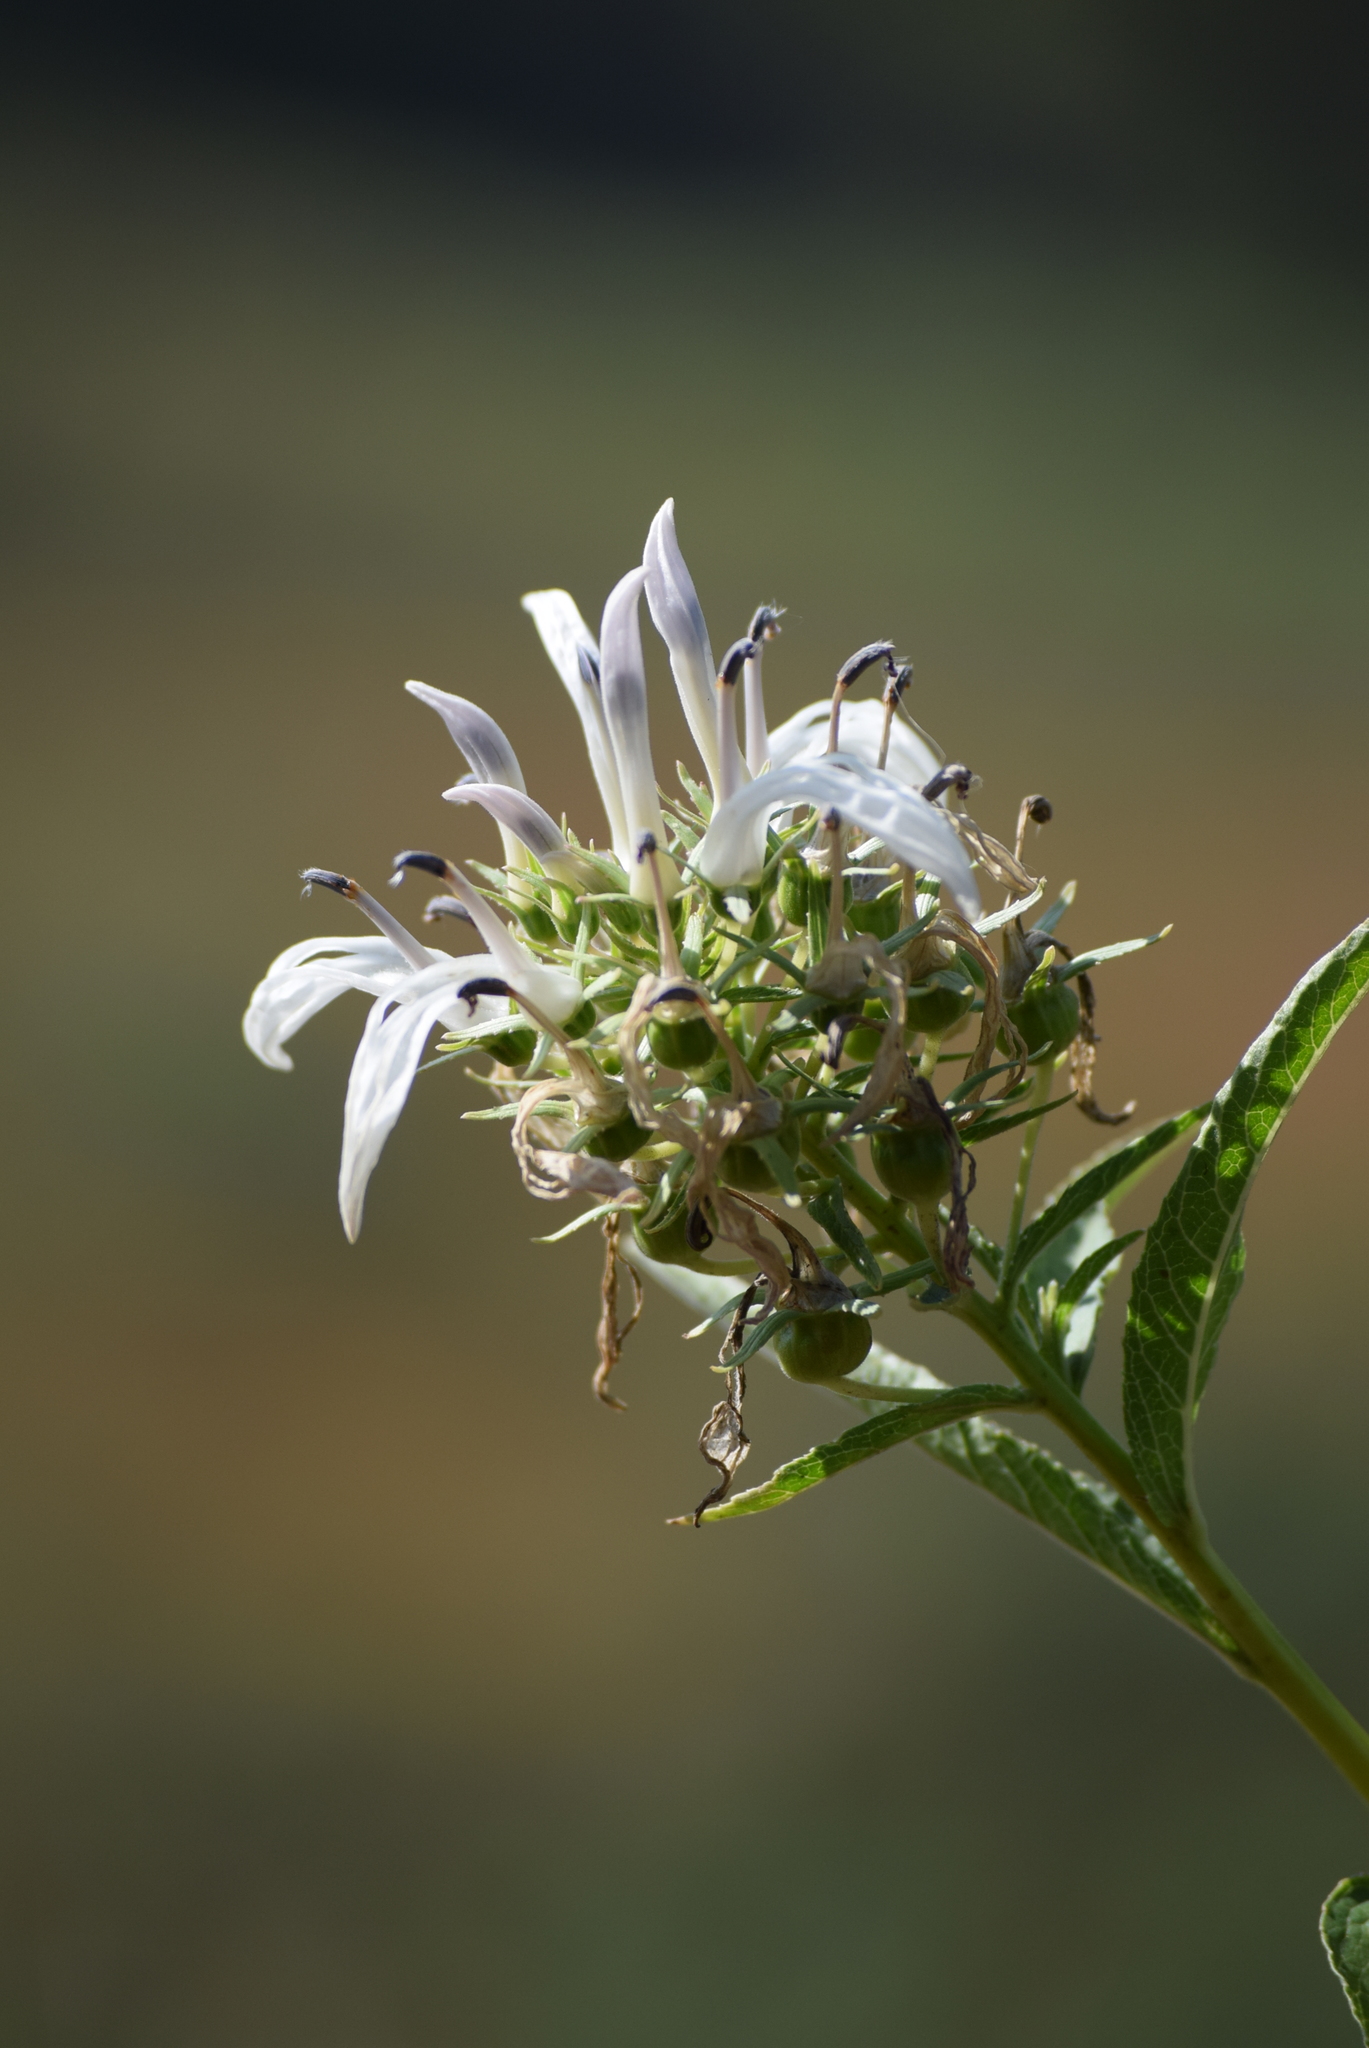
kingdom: Plantae
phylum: Tracheophyta
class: Magnoliopsida
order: Asterales
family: Campanulaceae
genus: Lobelia
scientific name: Lobelia nicotianifolia
